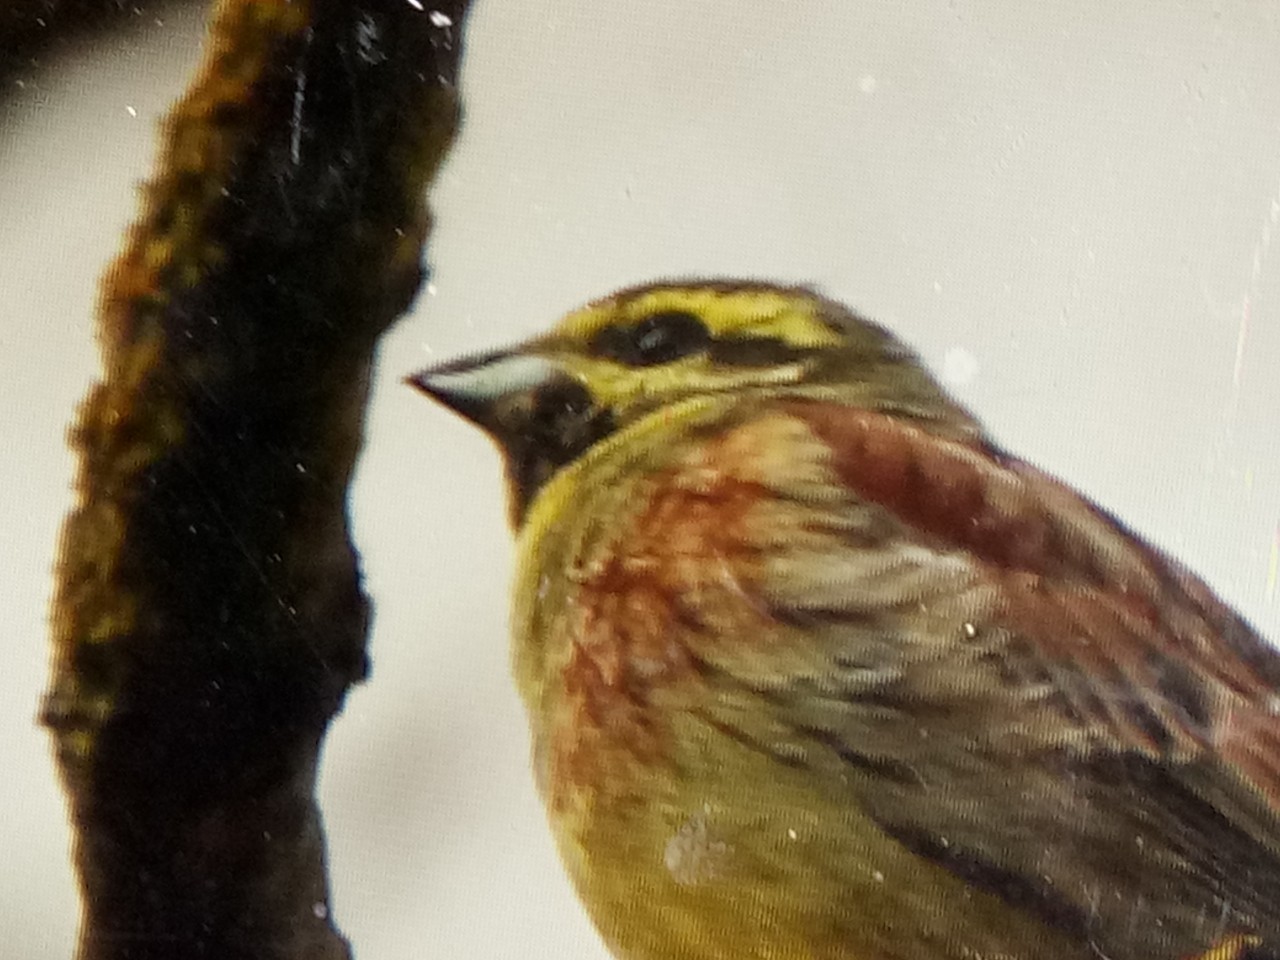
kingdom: Animalia
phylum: Chordata
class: Aves
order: Passeriformes
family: Emberizidae
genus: Emberiza
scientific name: Emberiza cirlus
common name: Cirl bunting
